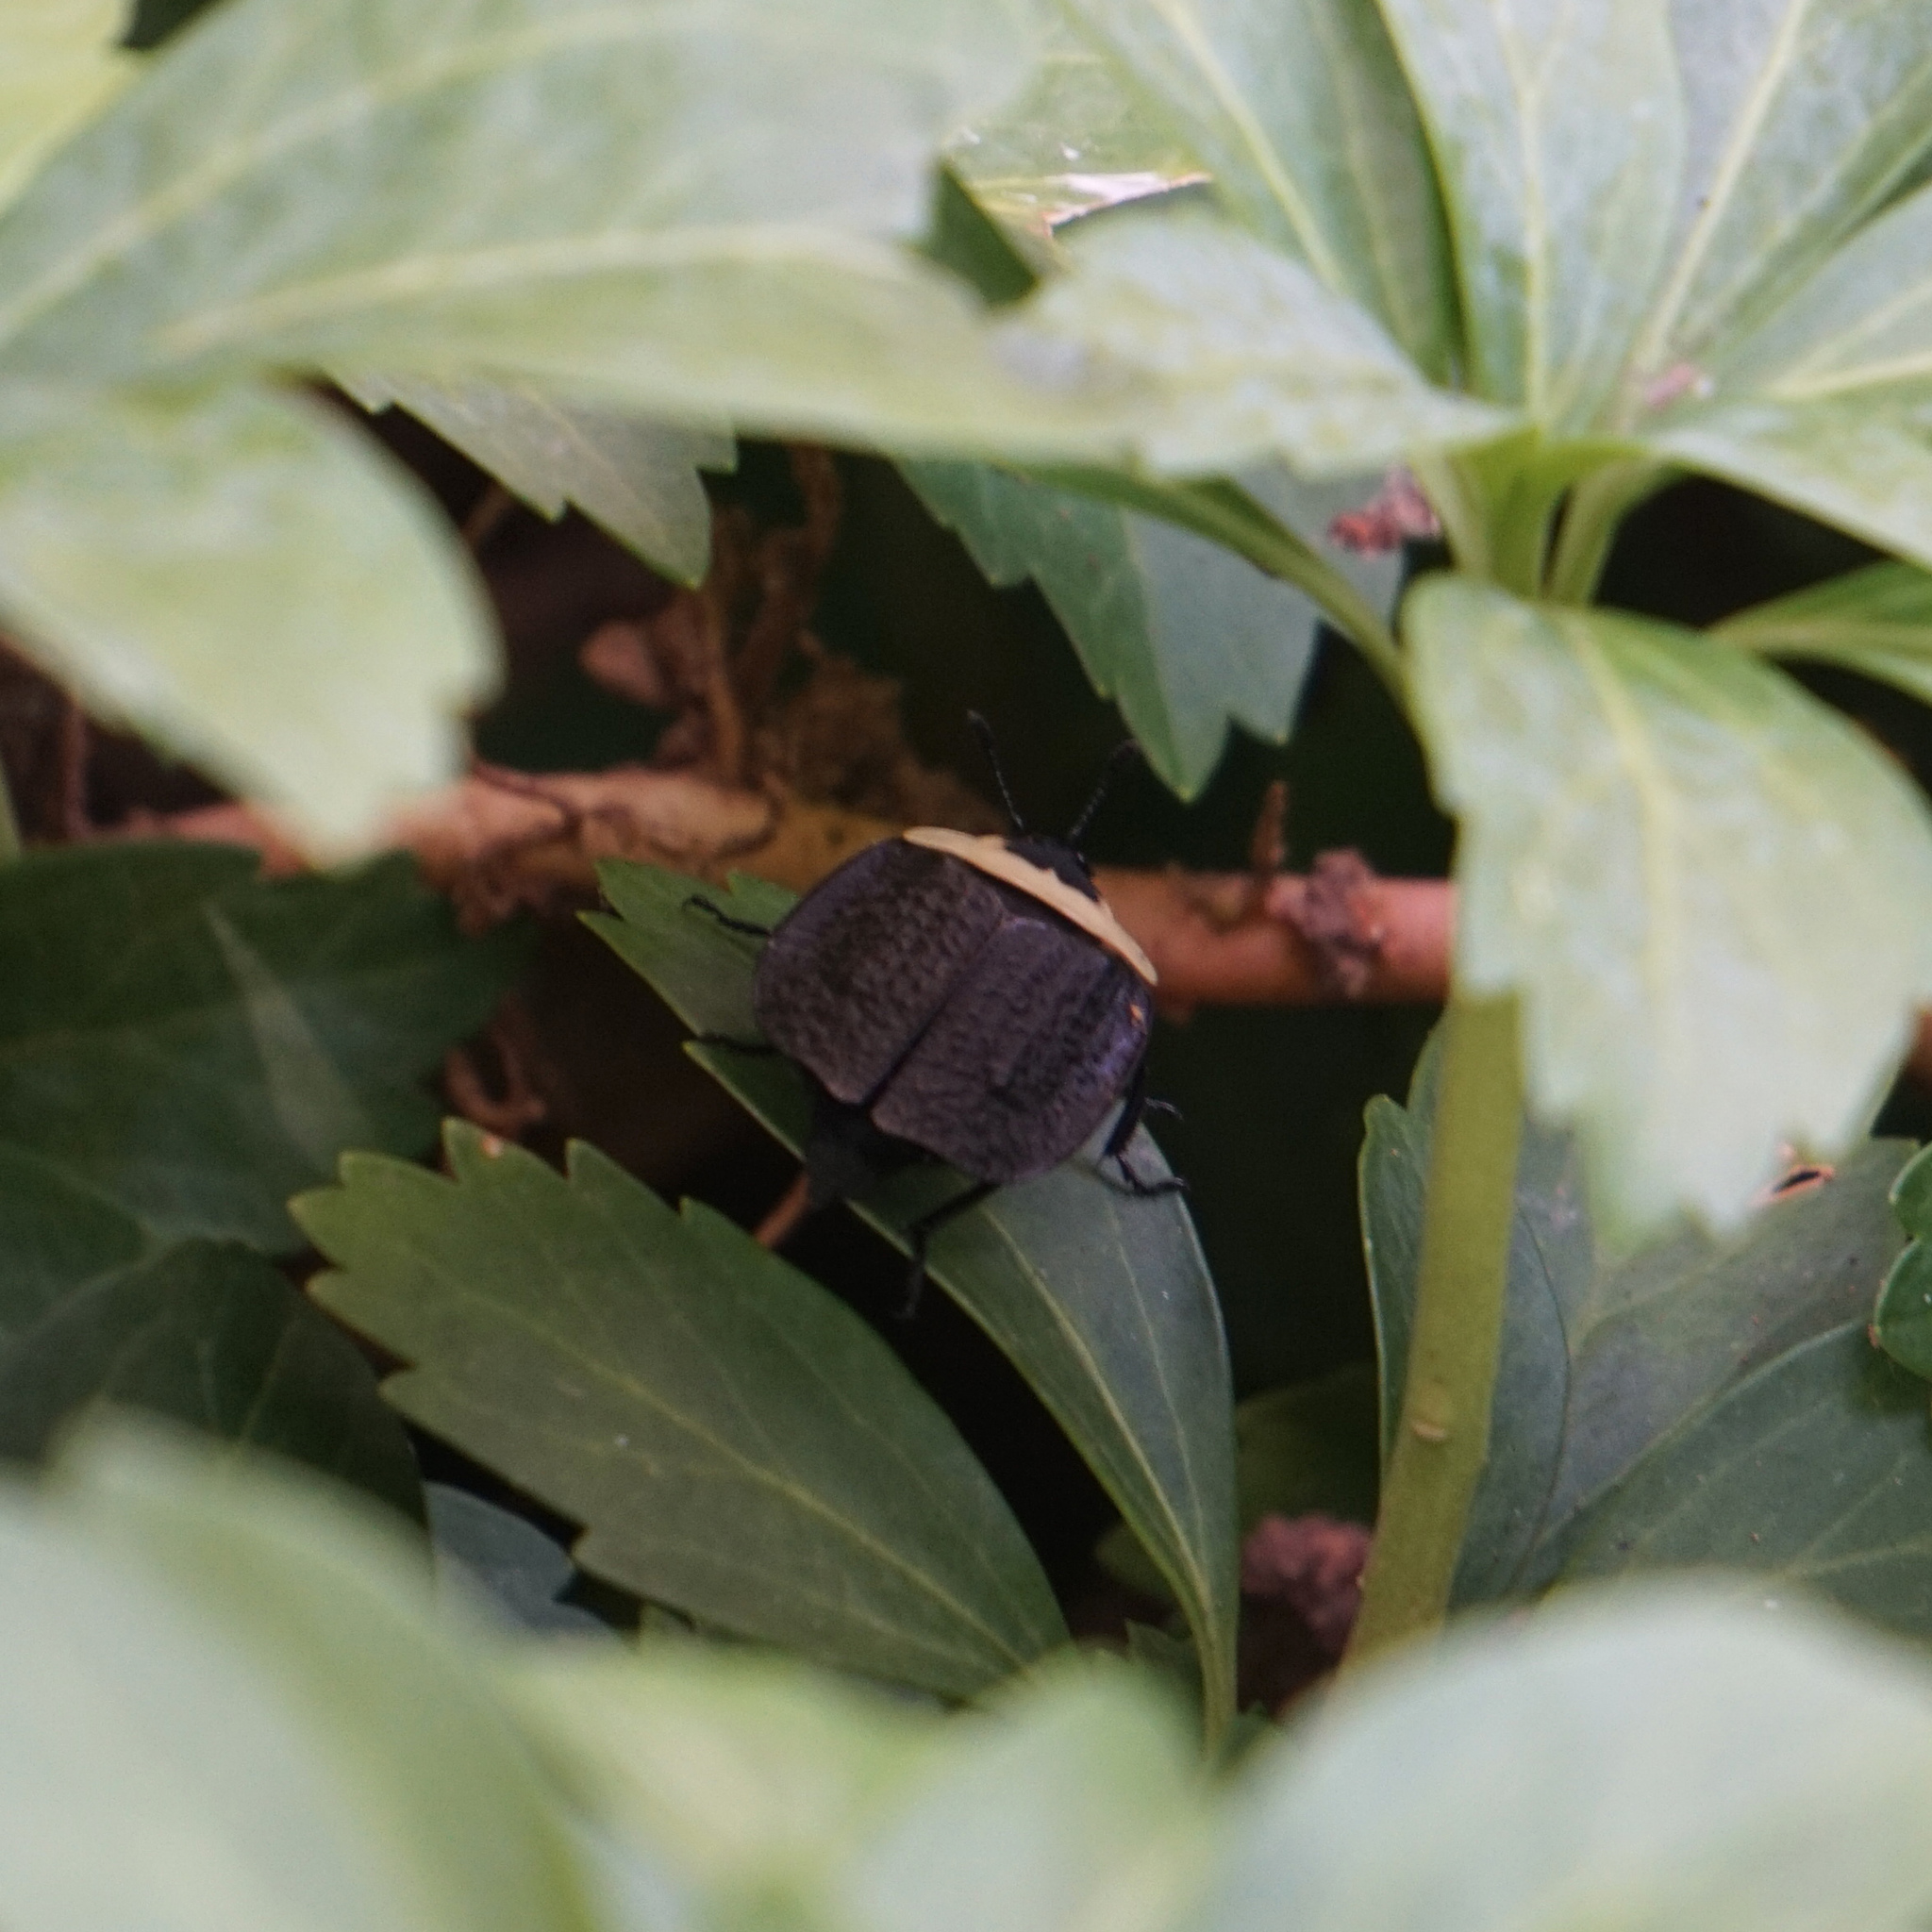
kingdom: Animalia
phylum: Arthropoda
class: Insecta
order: Coleoptera
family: Staphylinidae
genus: Necrophila
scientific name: Necrophila americana
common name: American carrion beetle
